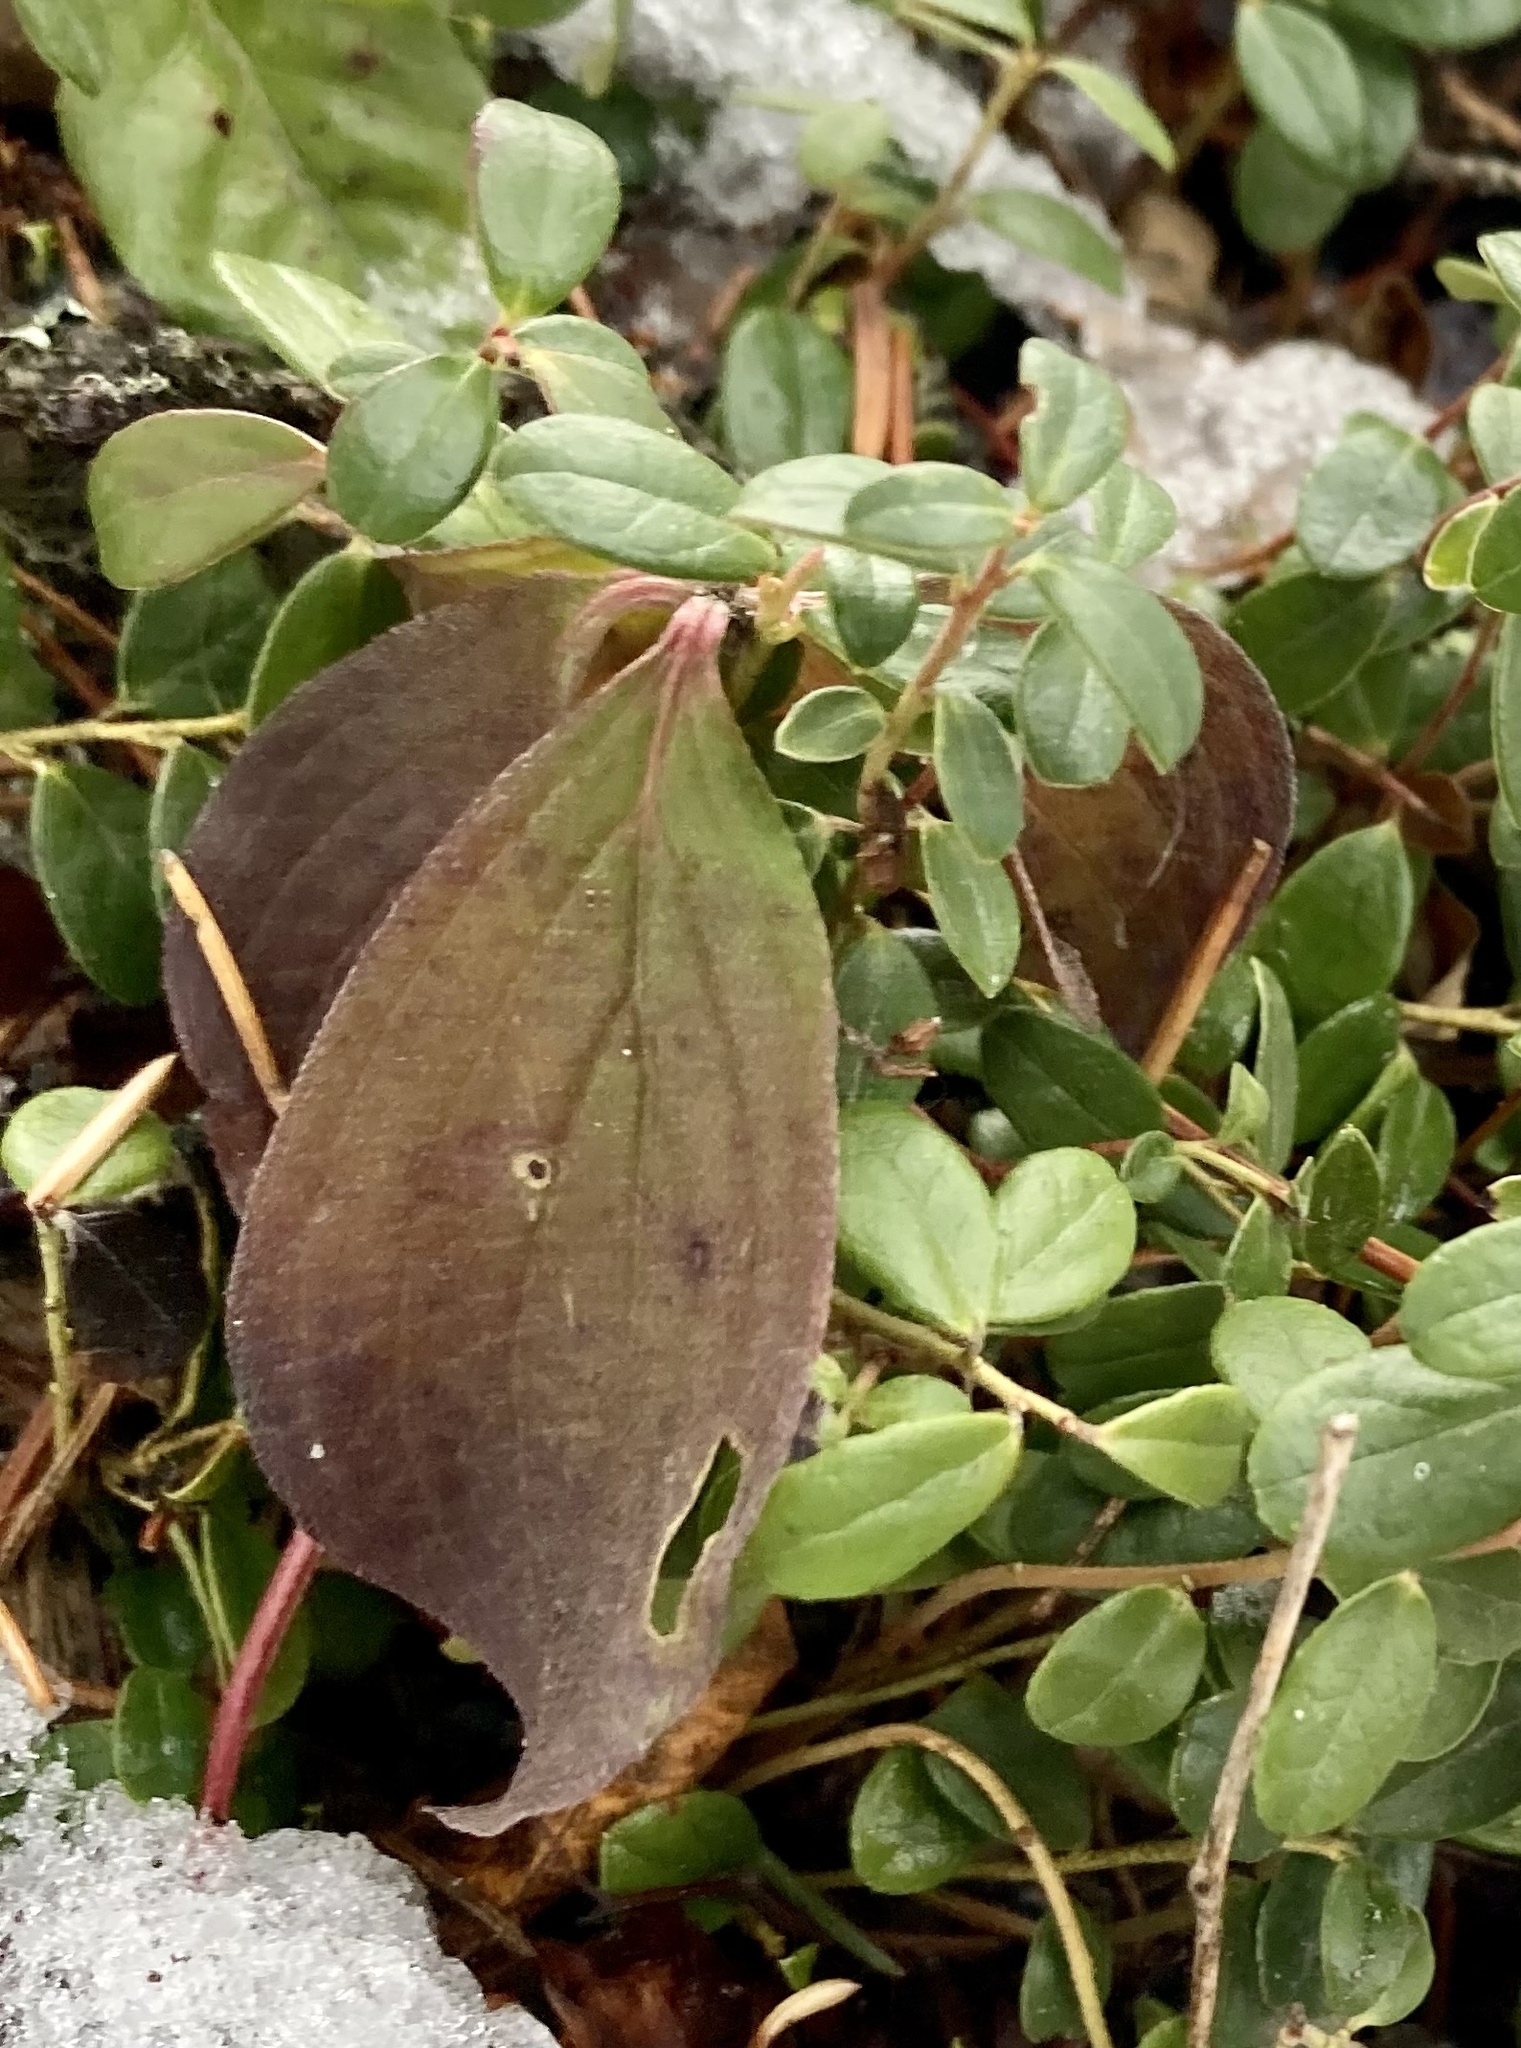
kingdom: Plantae
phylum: Tracheophyta
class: Magnoliopsida
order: Cornales
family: Cornaceae
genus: Cornus
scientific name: Cornus canadensis
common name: Creeping dogwood
